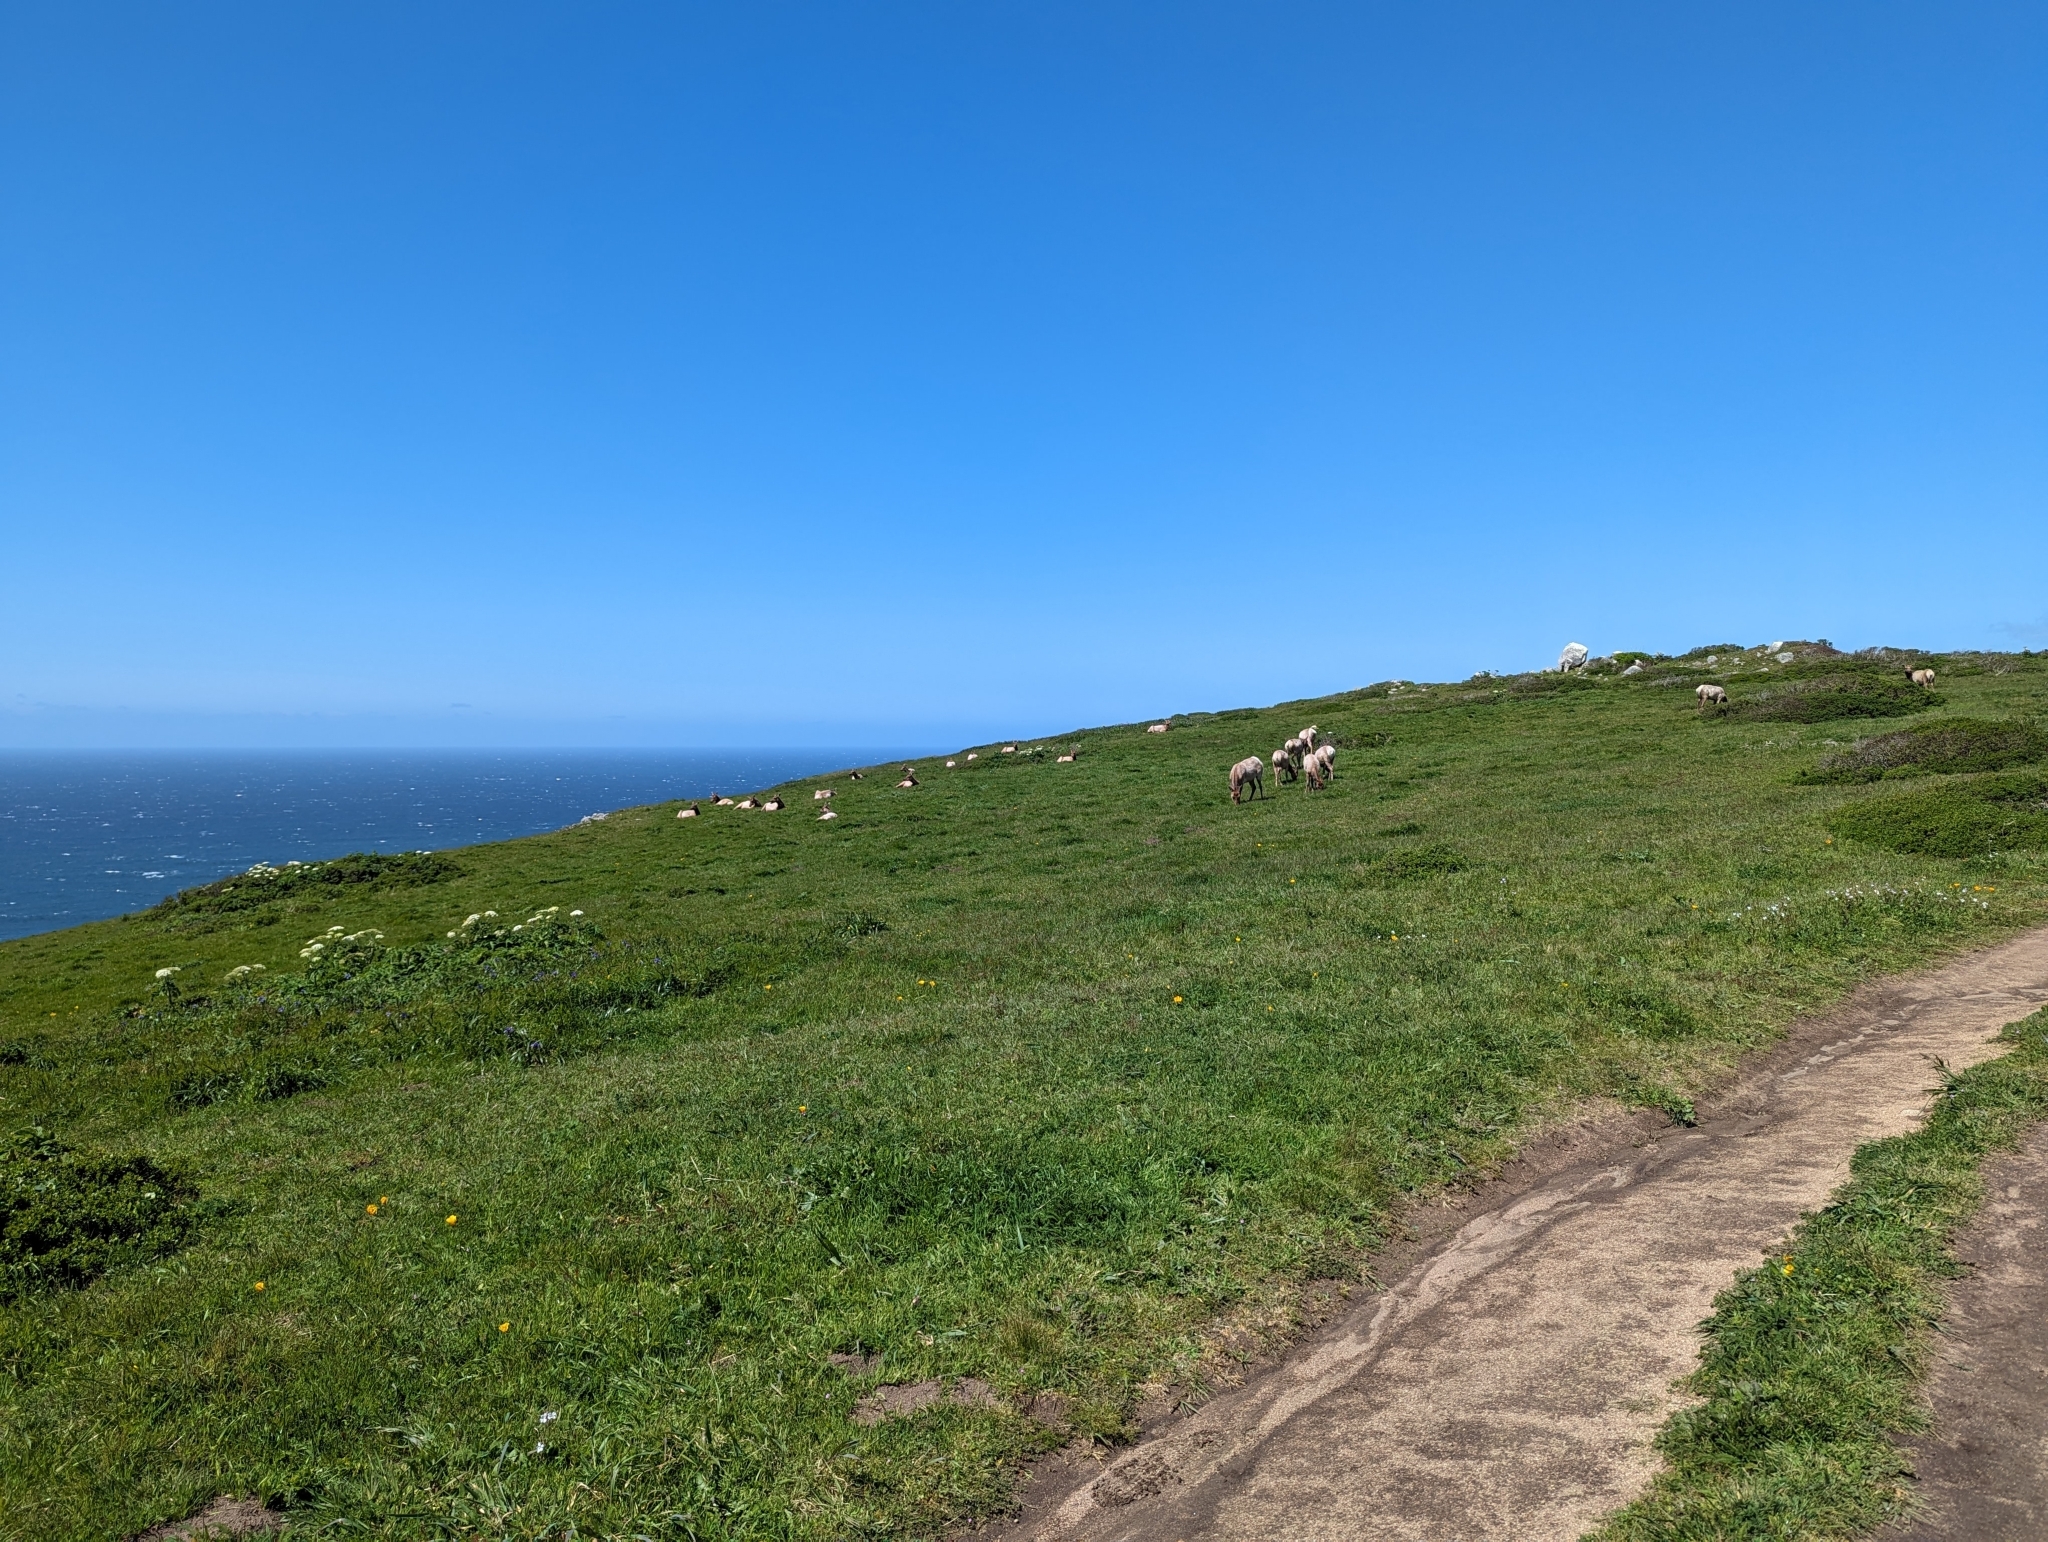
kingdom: Animalia
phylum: Chordata
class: Mammalia
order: Artiodactyla
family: Cervidae
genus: Cervus
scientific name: Cervus elaphus
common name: Red deer
